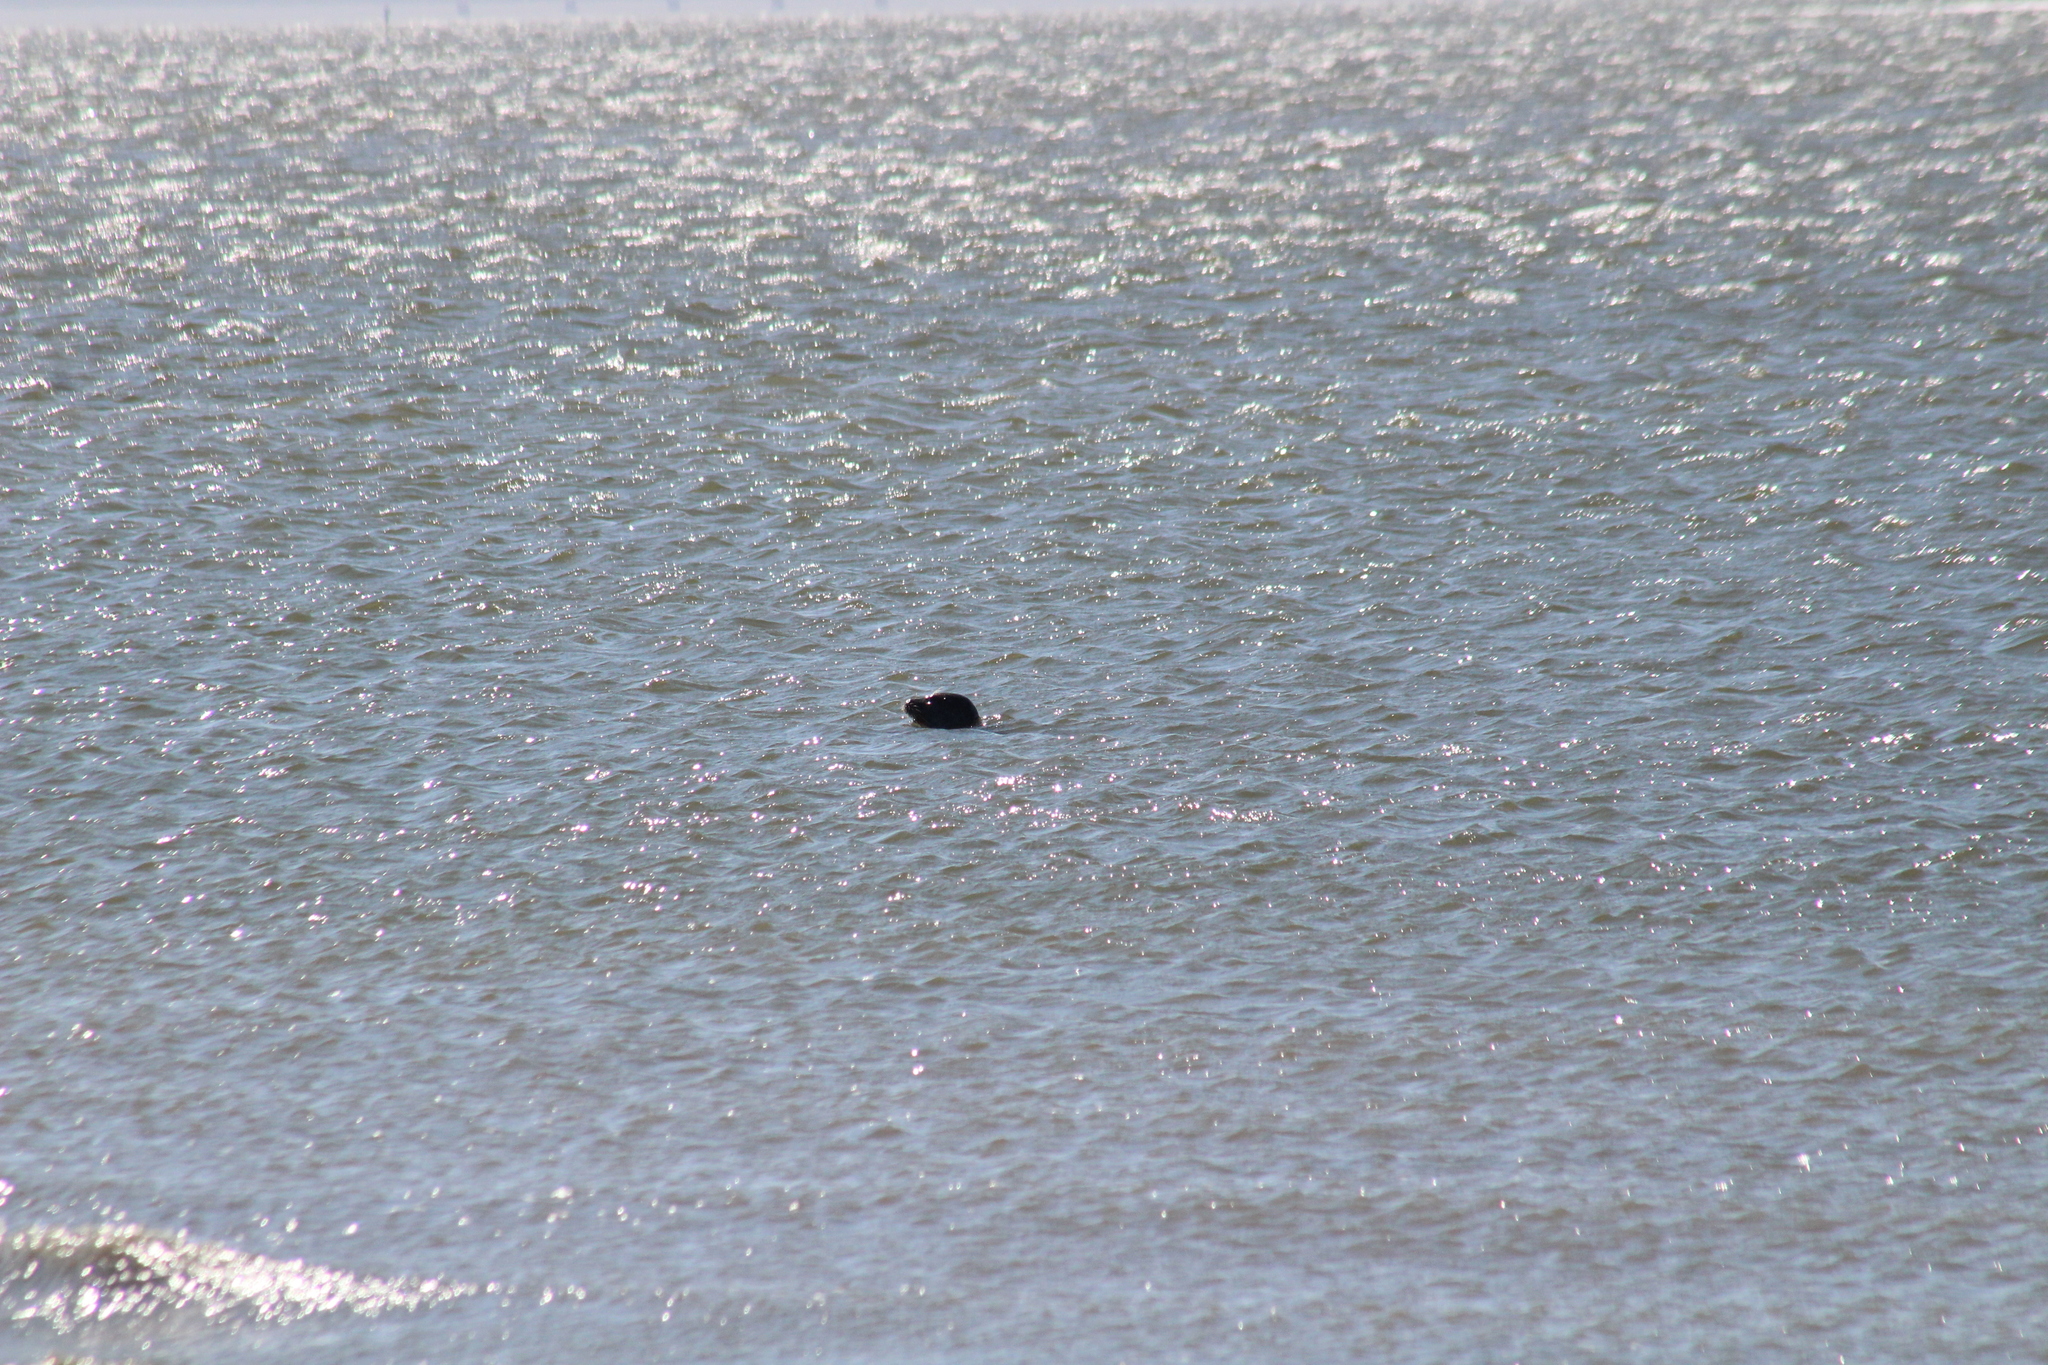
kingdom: Animalia
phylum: Chordata
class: Mammalia
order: Carnivora
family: Phocidae
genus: Phoca
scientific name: Phoca vitulina
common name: Harbor seal
